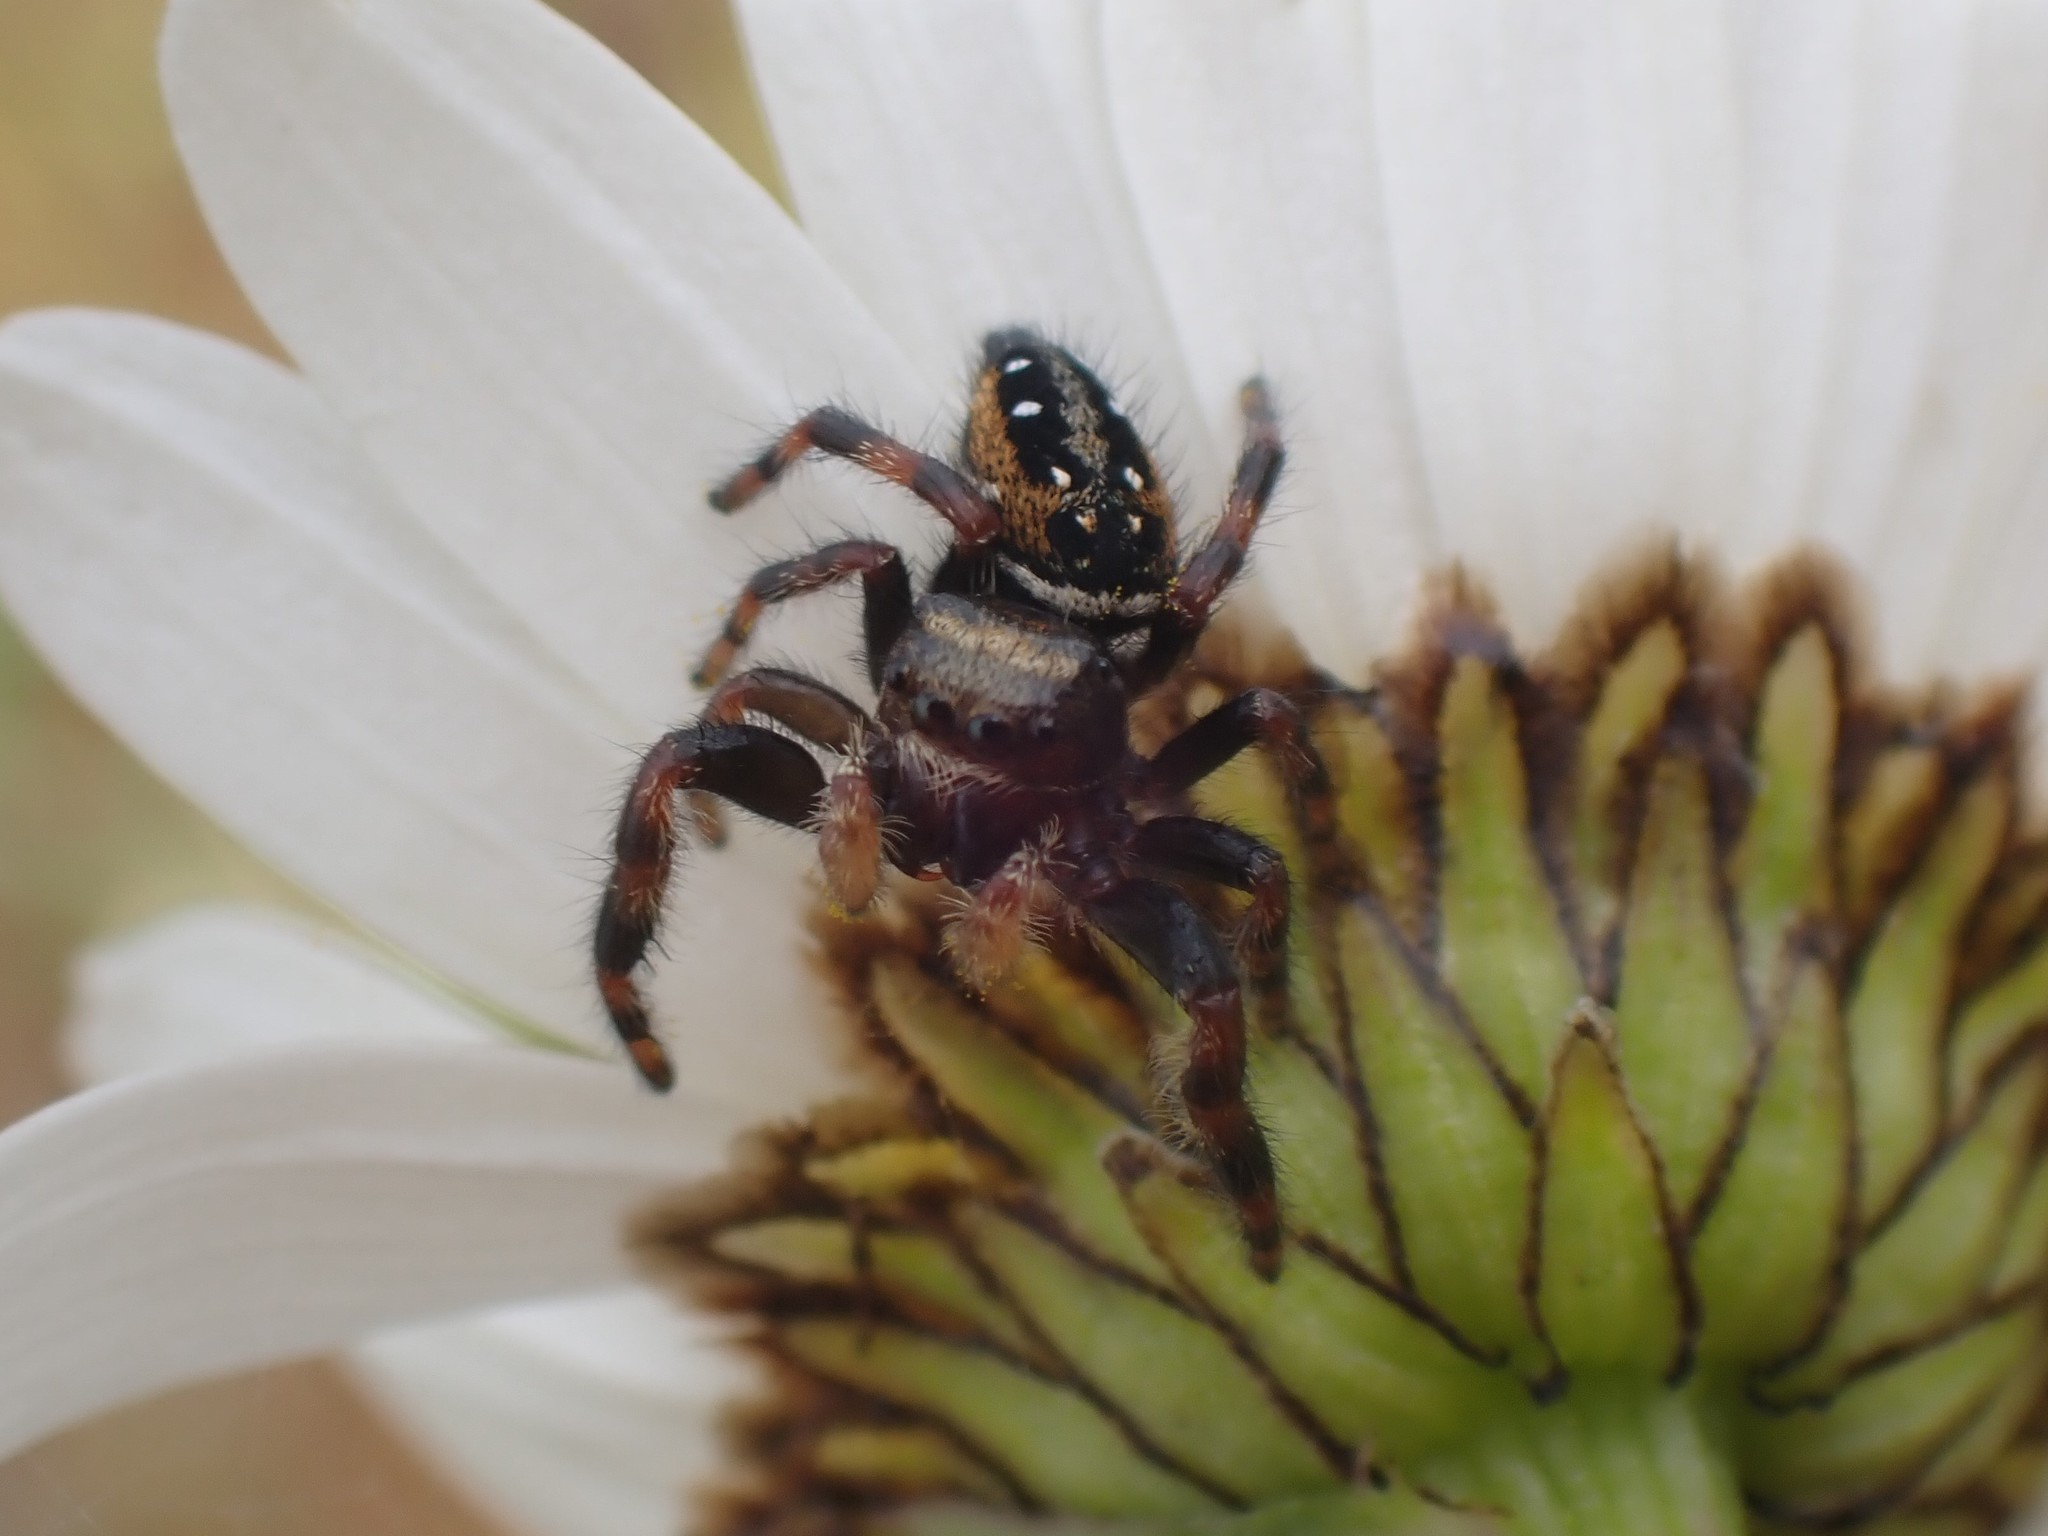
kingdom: Animalia
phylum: Arthropoda
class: Arachnida
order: Araneae
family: Salticidae
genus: Phidippus
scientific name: Phidippus clarus
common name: Brilliant jumping spider
